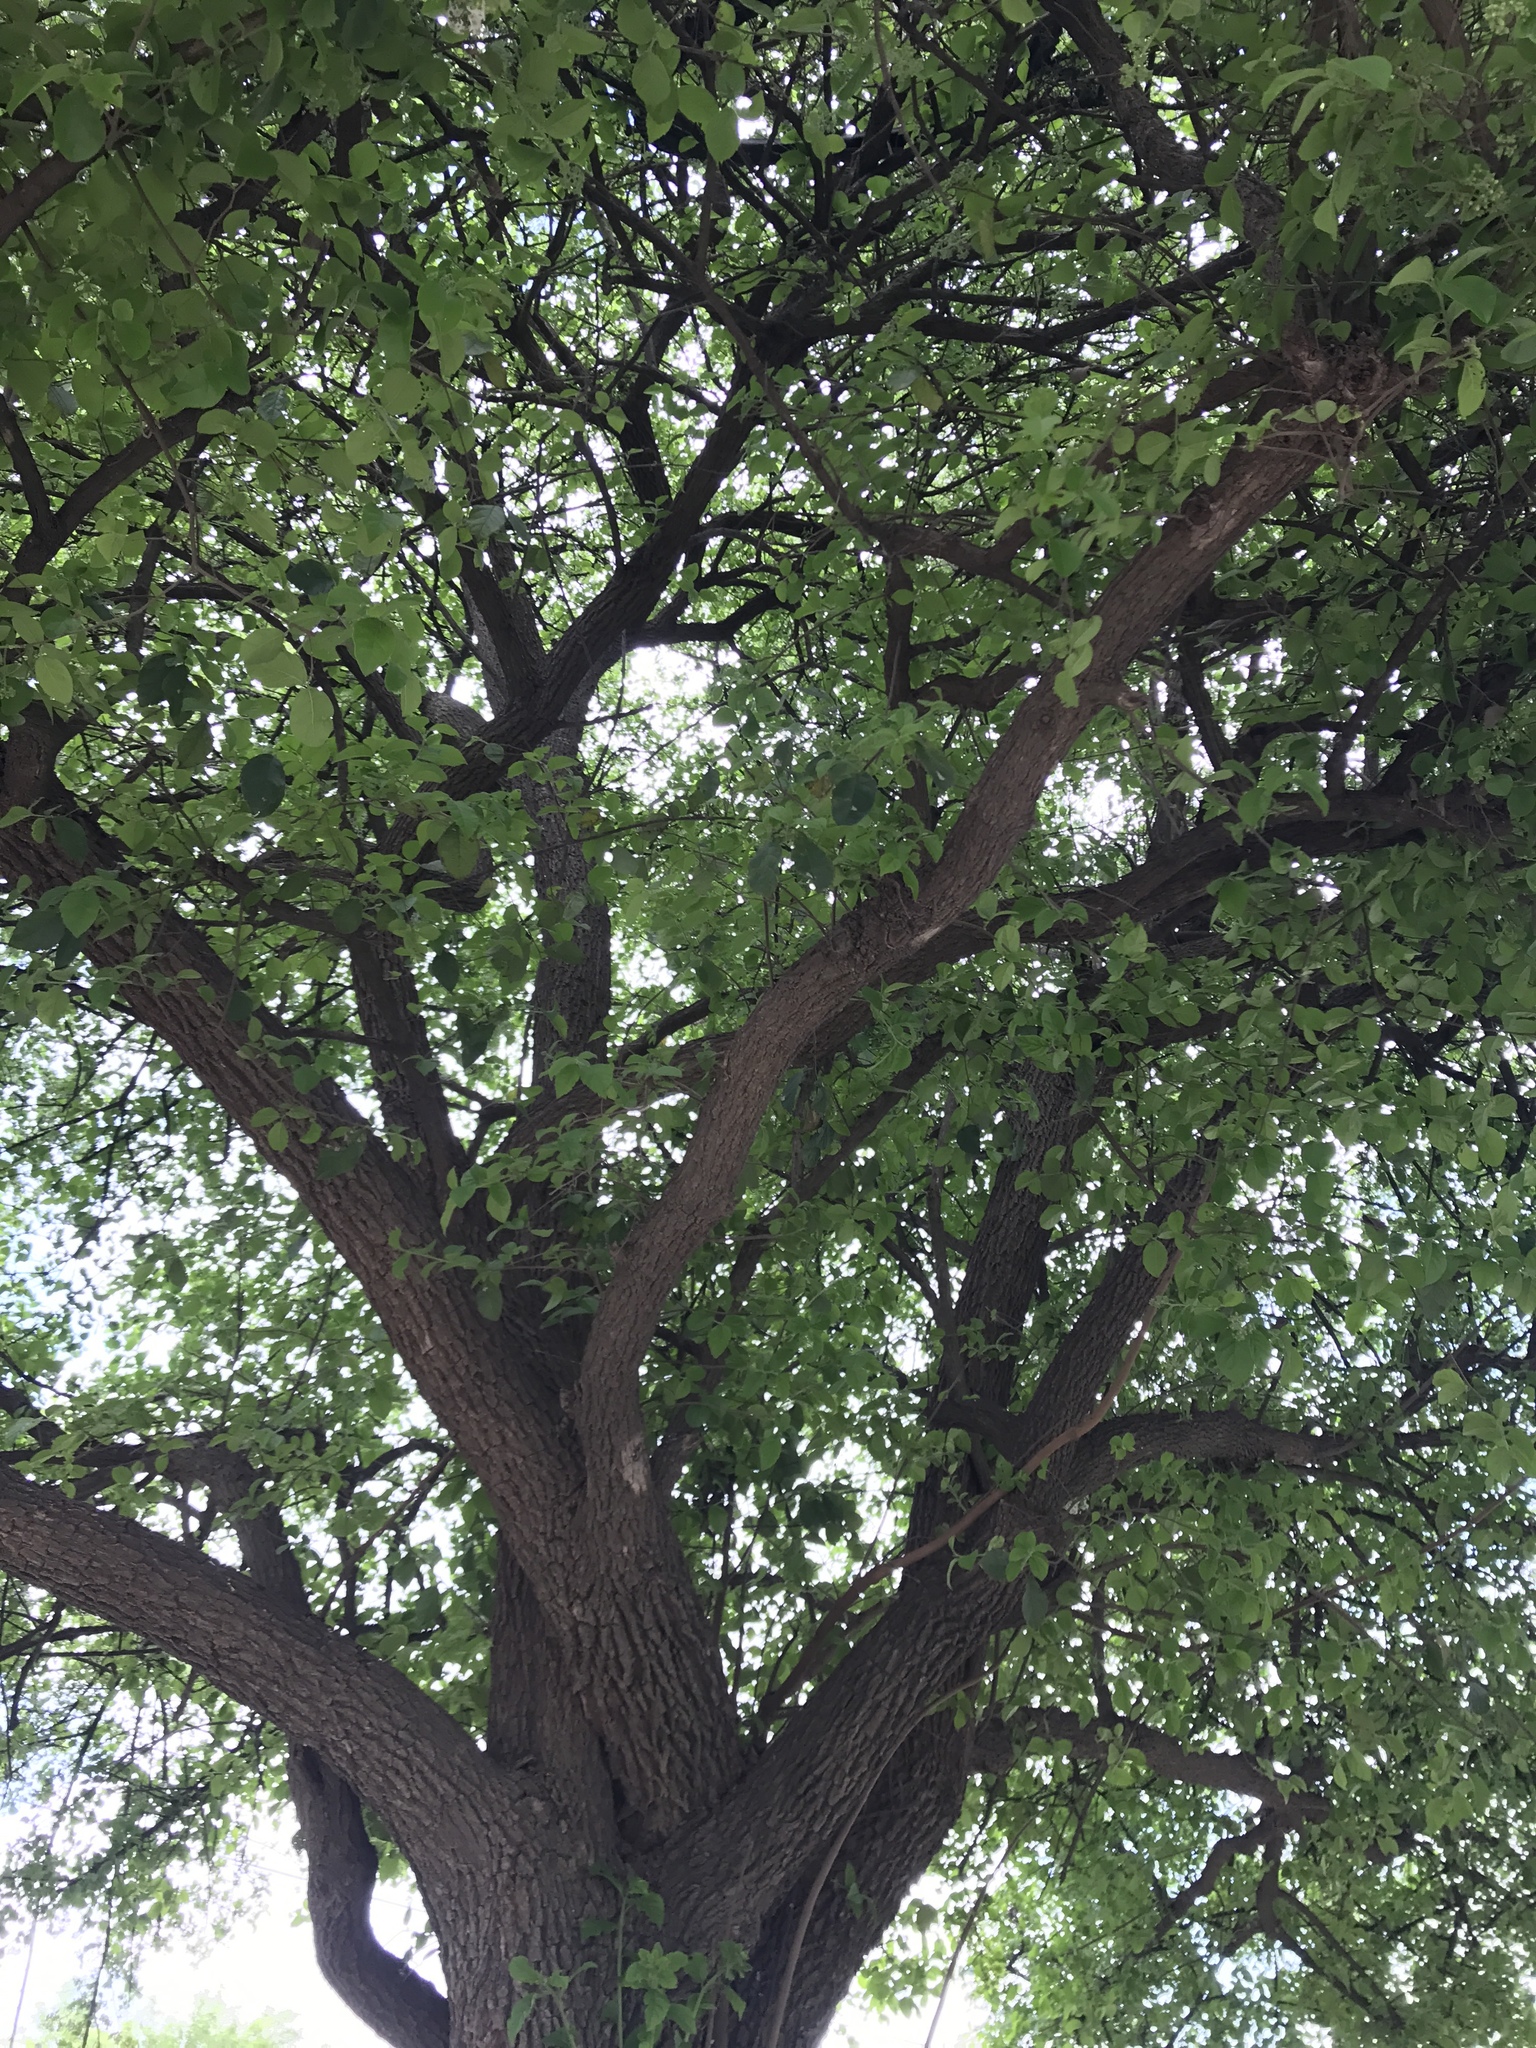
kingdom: Plantae
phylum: Tracheophyta
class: Magnoliopsida
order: Boraginales
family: Ehretiaceae
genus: Ehretia
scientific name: Ehretia anacua
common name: Sugarberry
